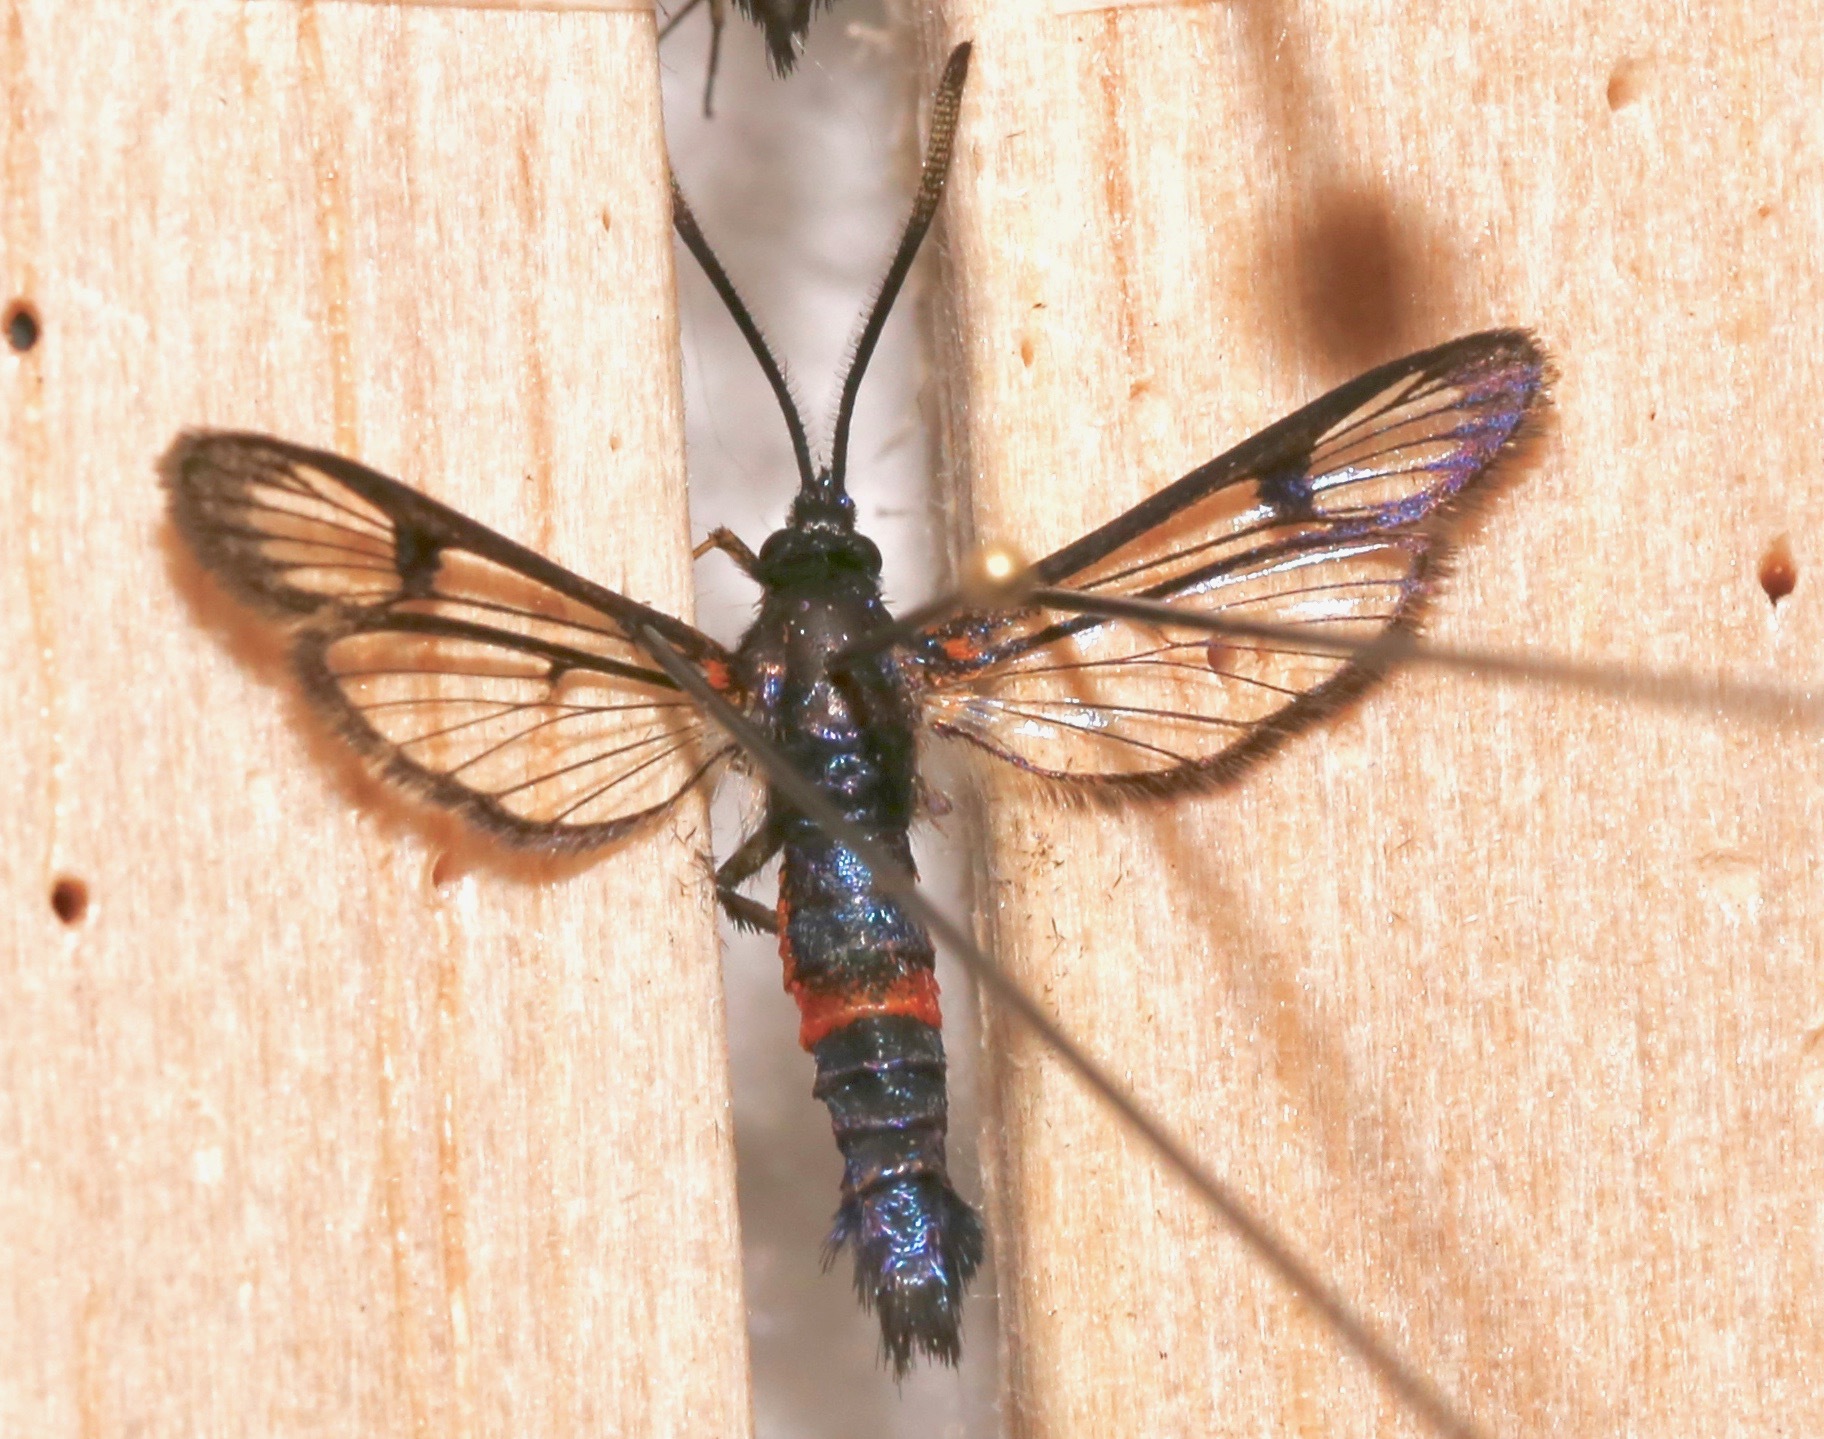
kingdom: Animalia
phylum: Arthropoda
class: Insecta
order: Lepidoptera
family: Sesiidae
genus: Synanthedon
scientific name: Synanthedon culiciformis
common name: Large red-belted clearwing
